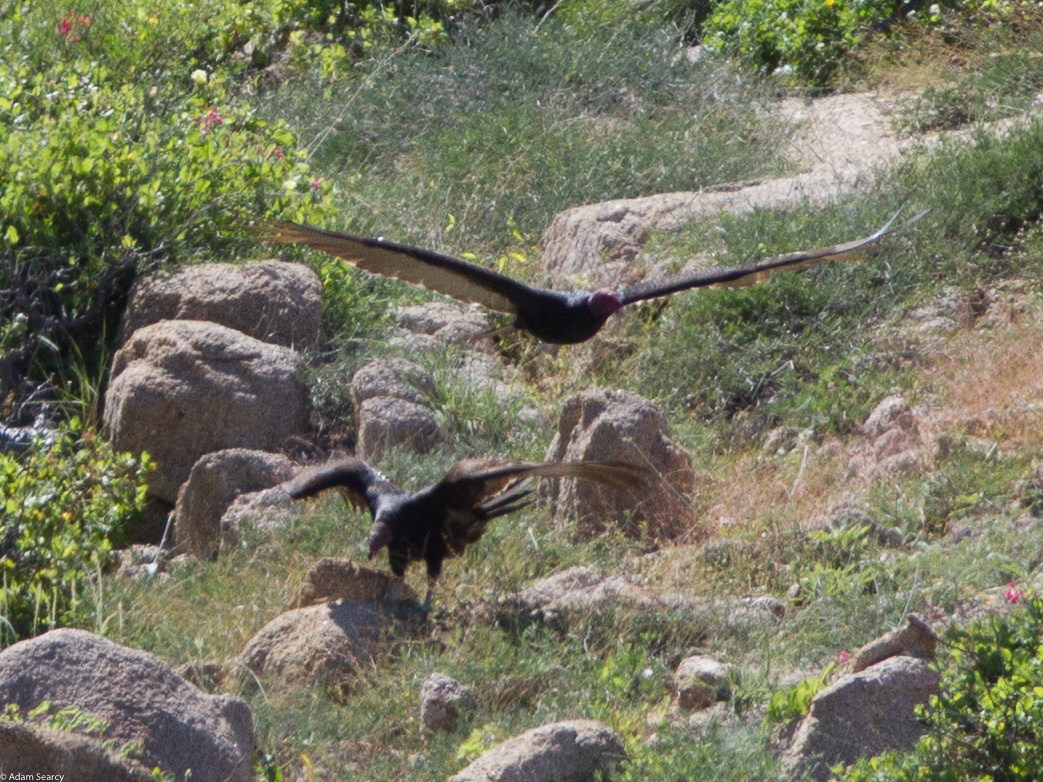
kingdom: Animalia
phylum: Chordata
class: Aves
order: Accipitriformes
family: Cathartidae
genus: Cathartes
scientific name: Cathartes aura
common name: Turkey vulture
